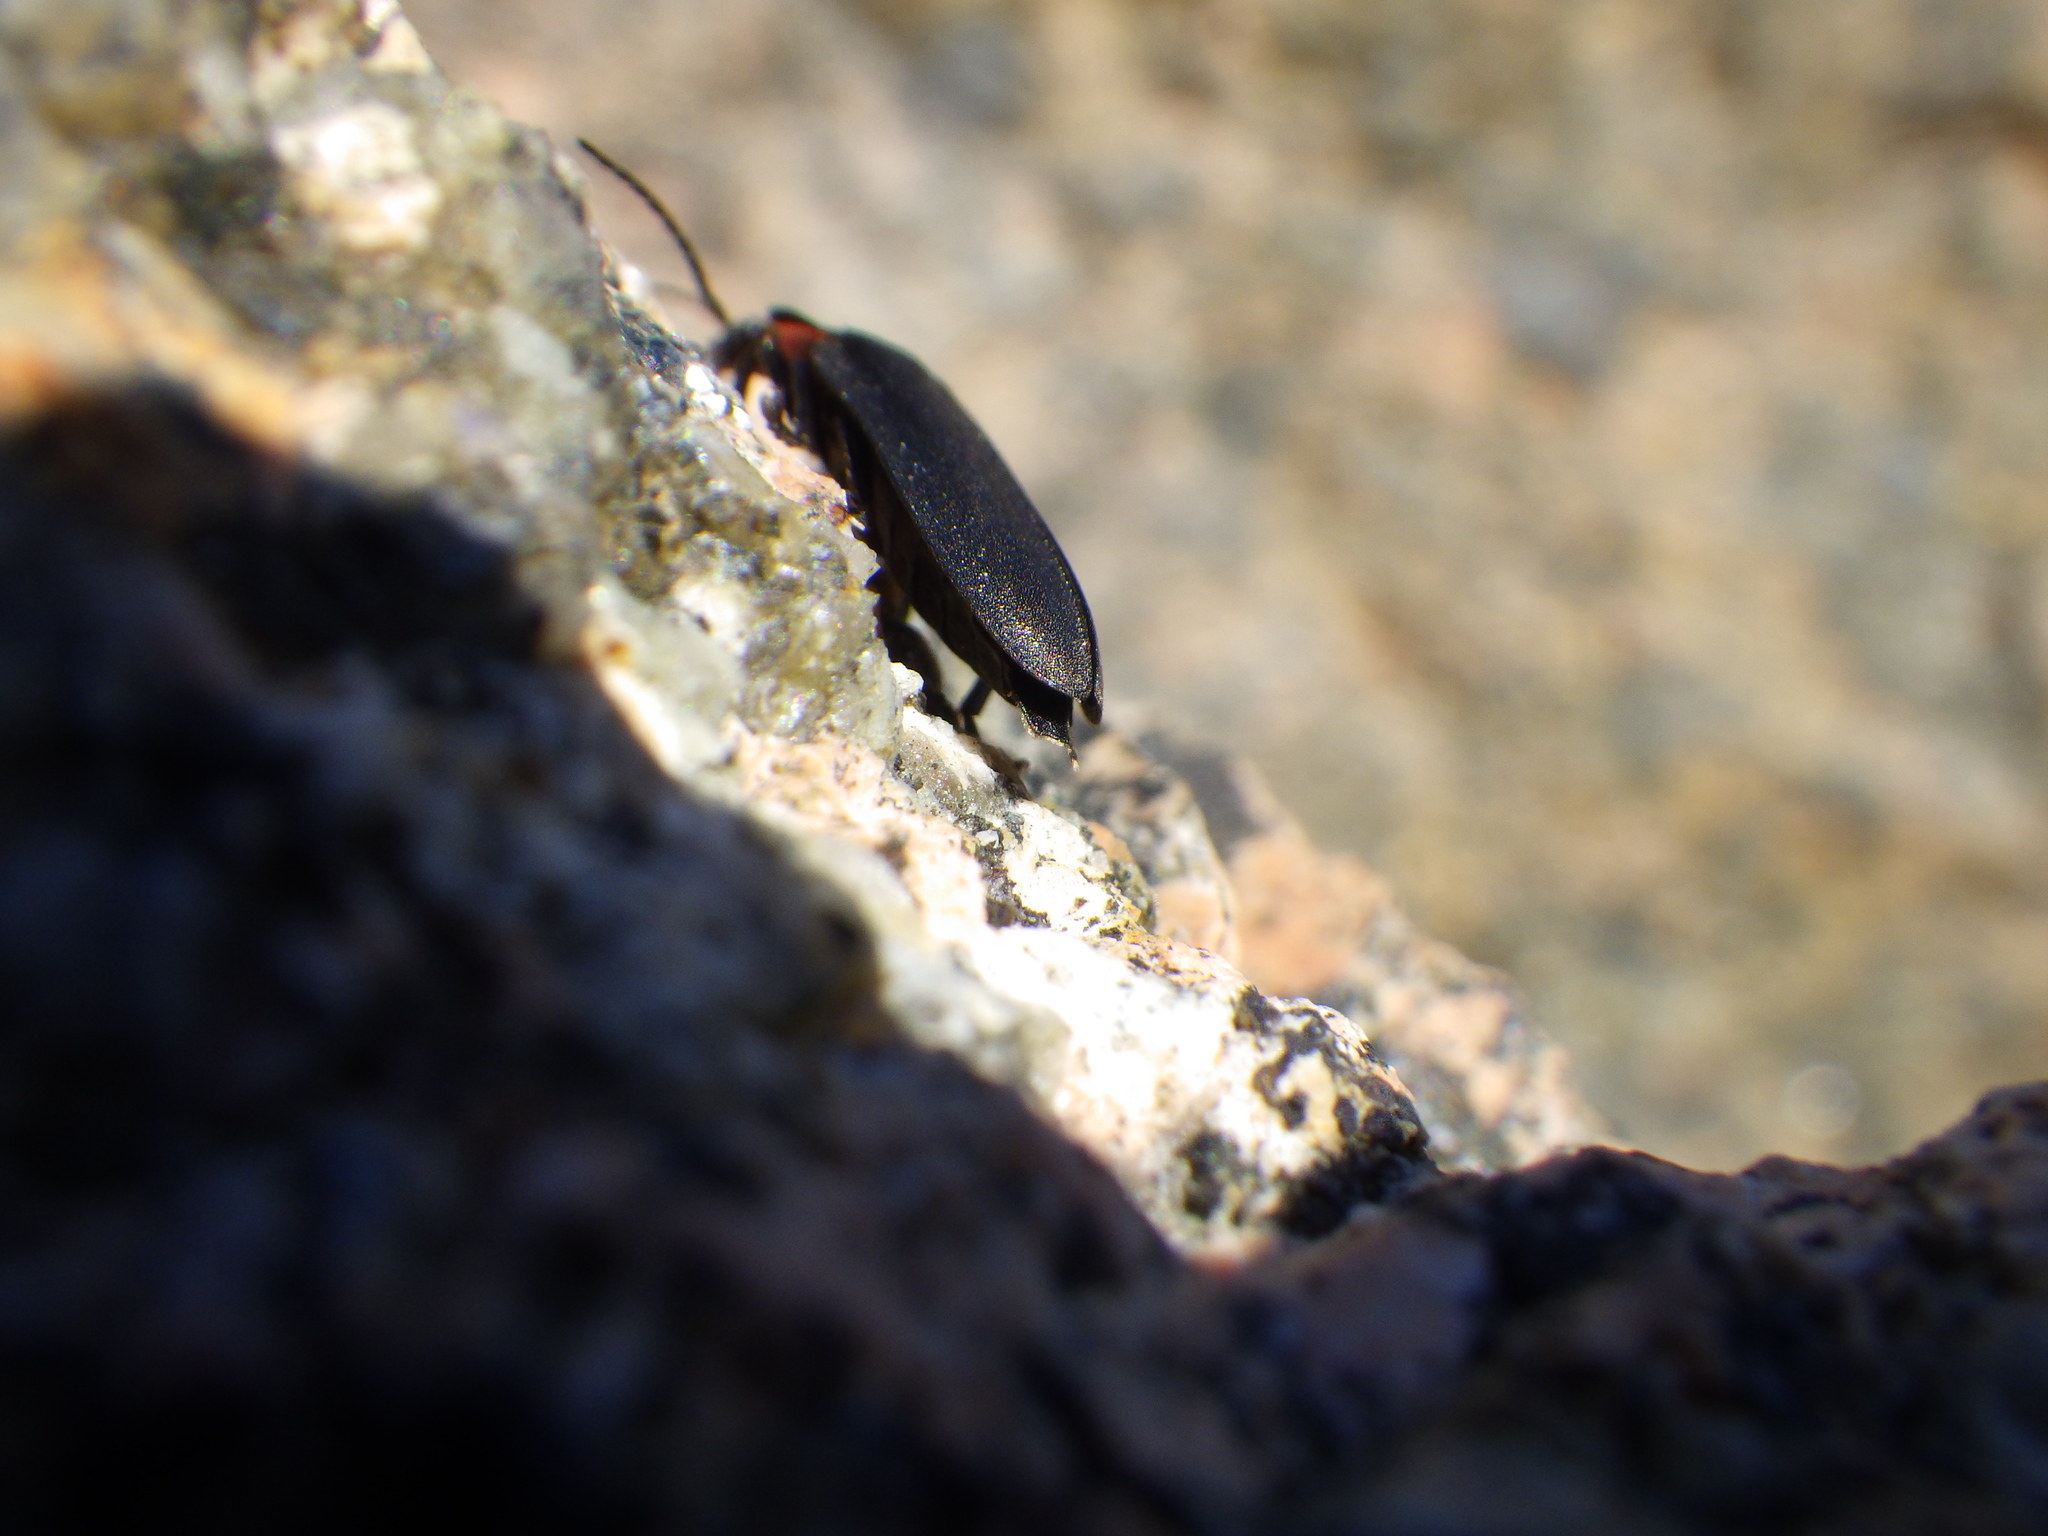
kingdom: Animalia
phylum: Arthropoda
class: Insecta
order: Coleoptera
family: Lampyridae
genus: Photinus
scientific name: Photinus corrusca
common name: Winter firefly
